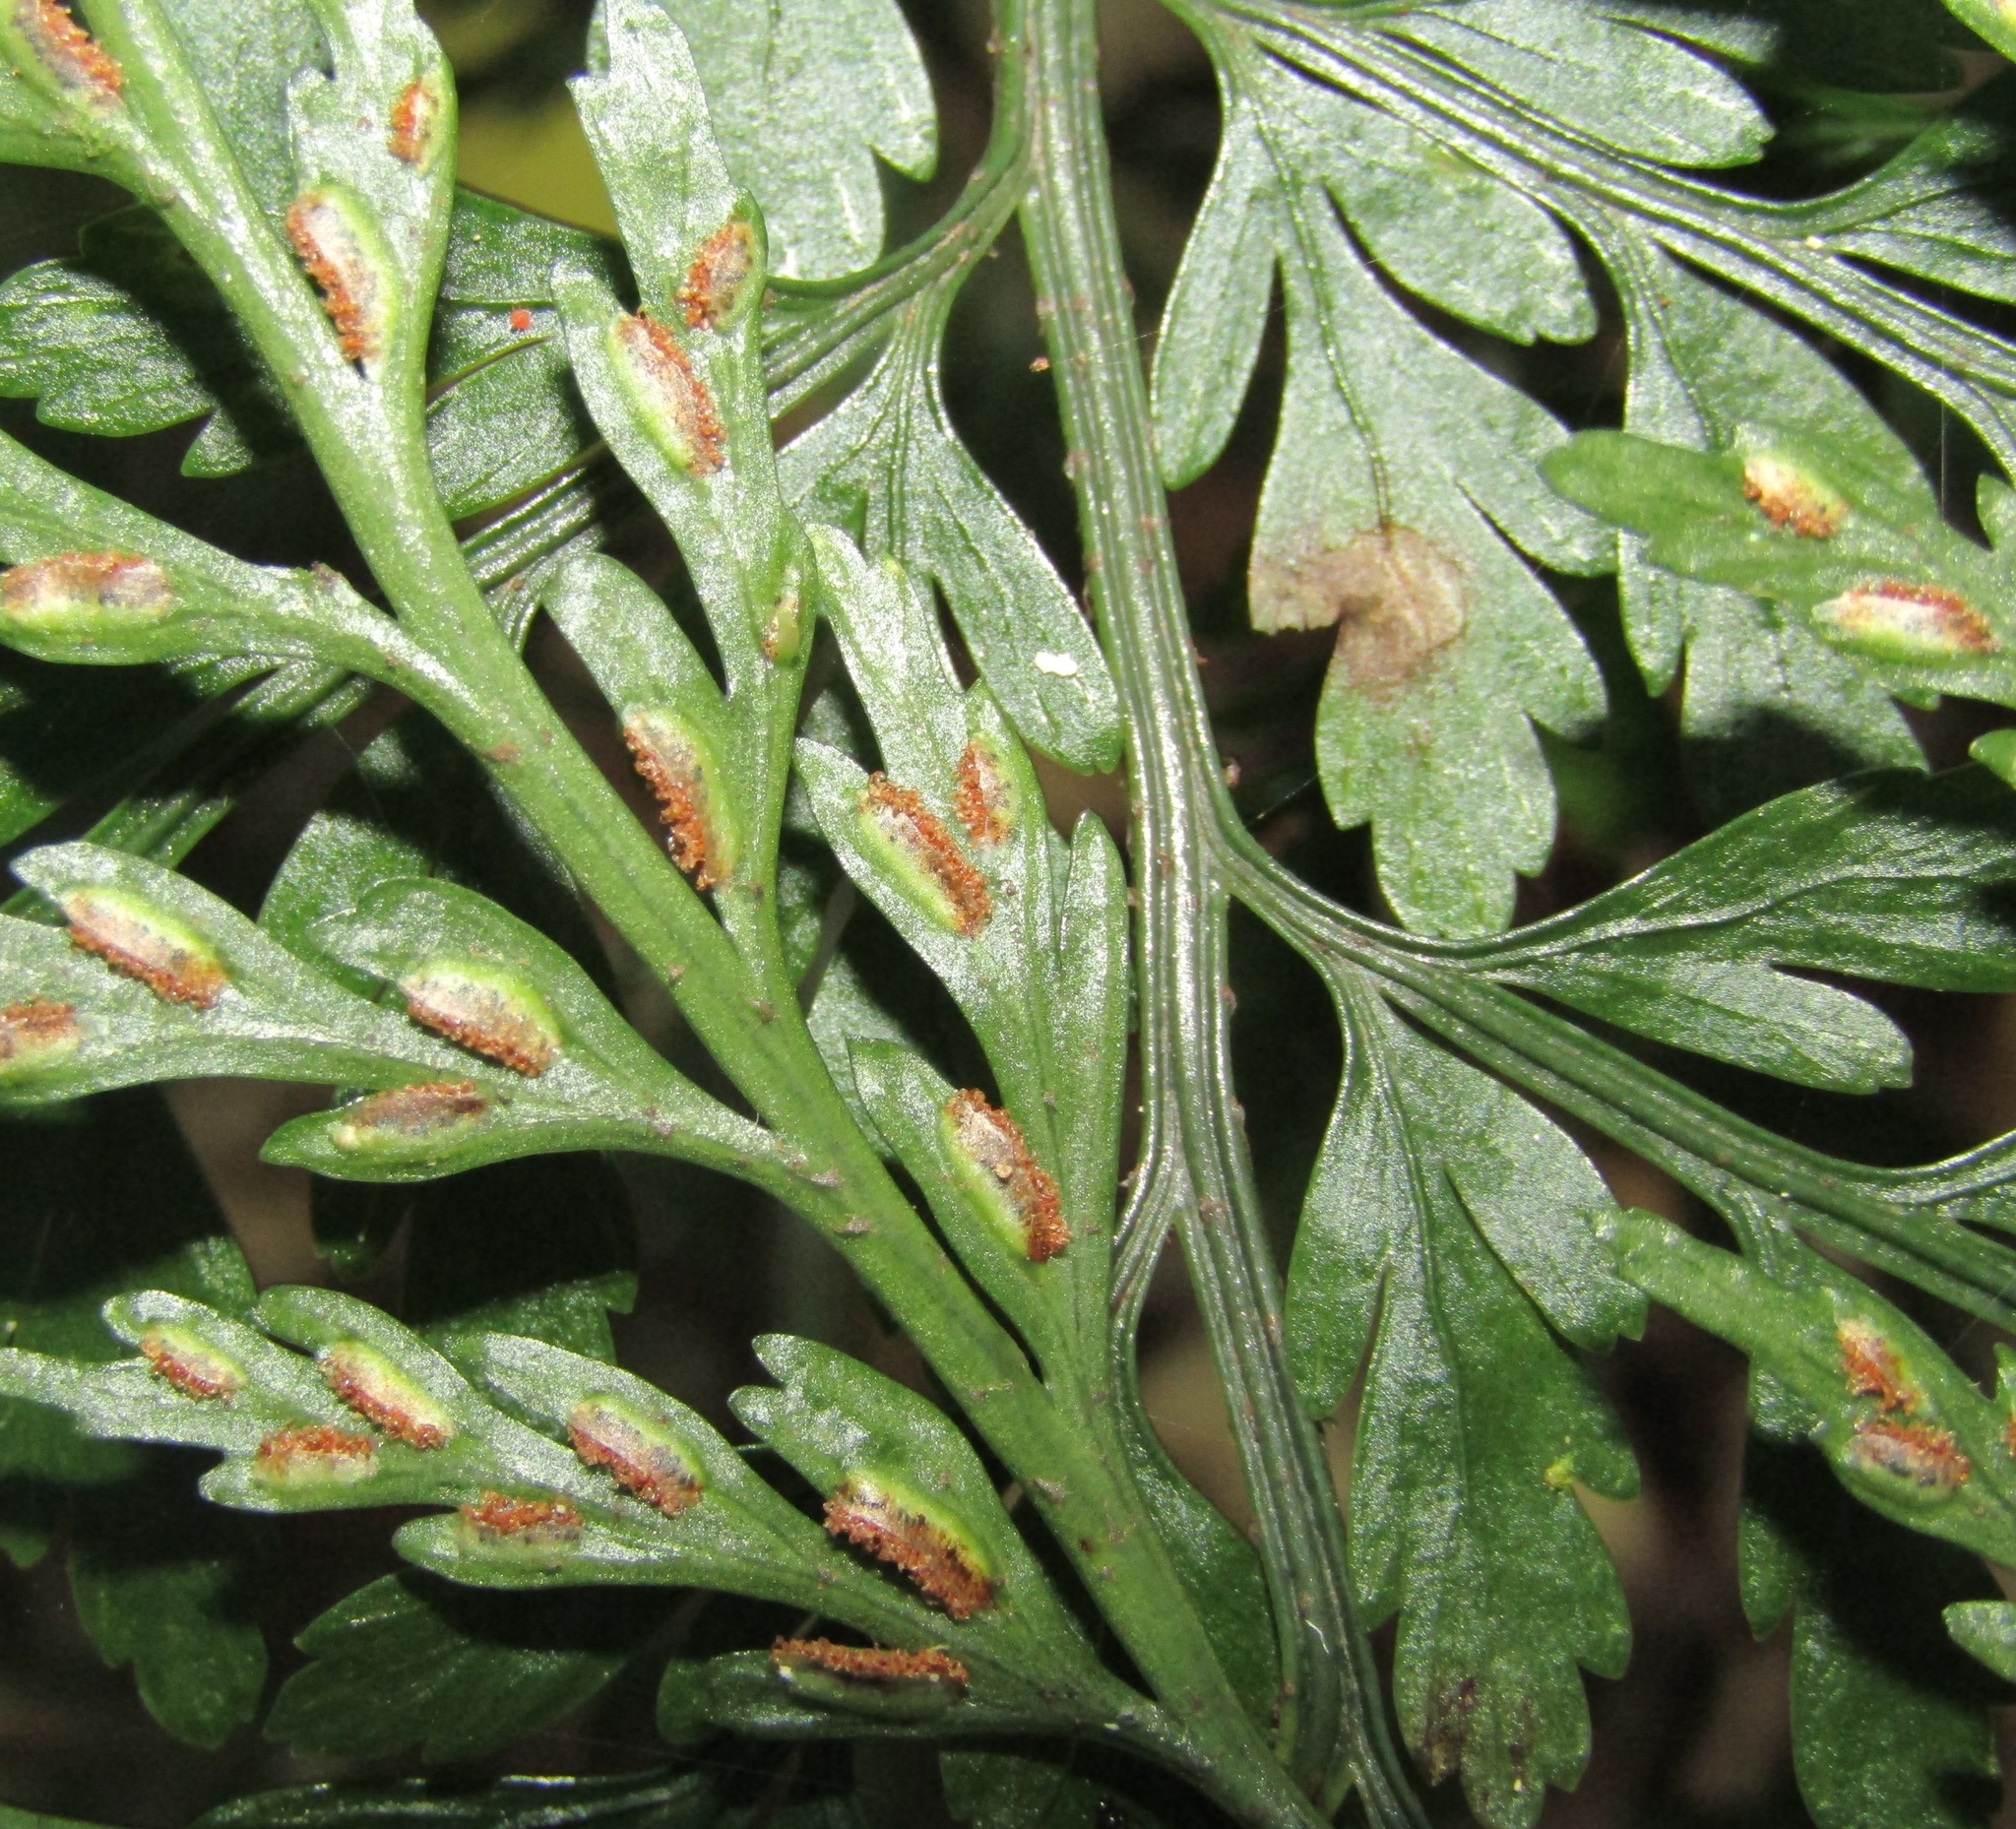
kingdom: Plantae
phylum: Tracheophyta
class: Polypodiopsida
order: Polypodiales
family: Aspleniaceae
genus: Asplenium
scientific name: Asplenium
